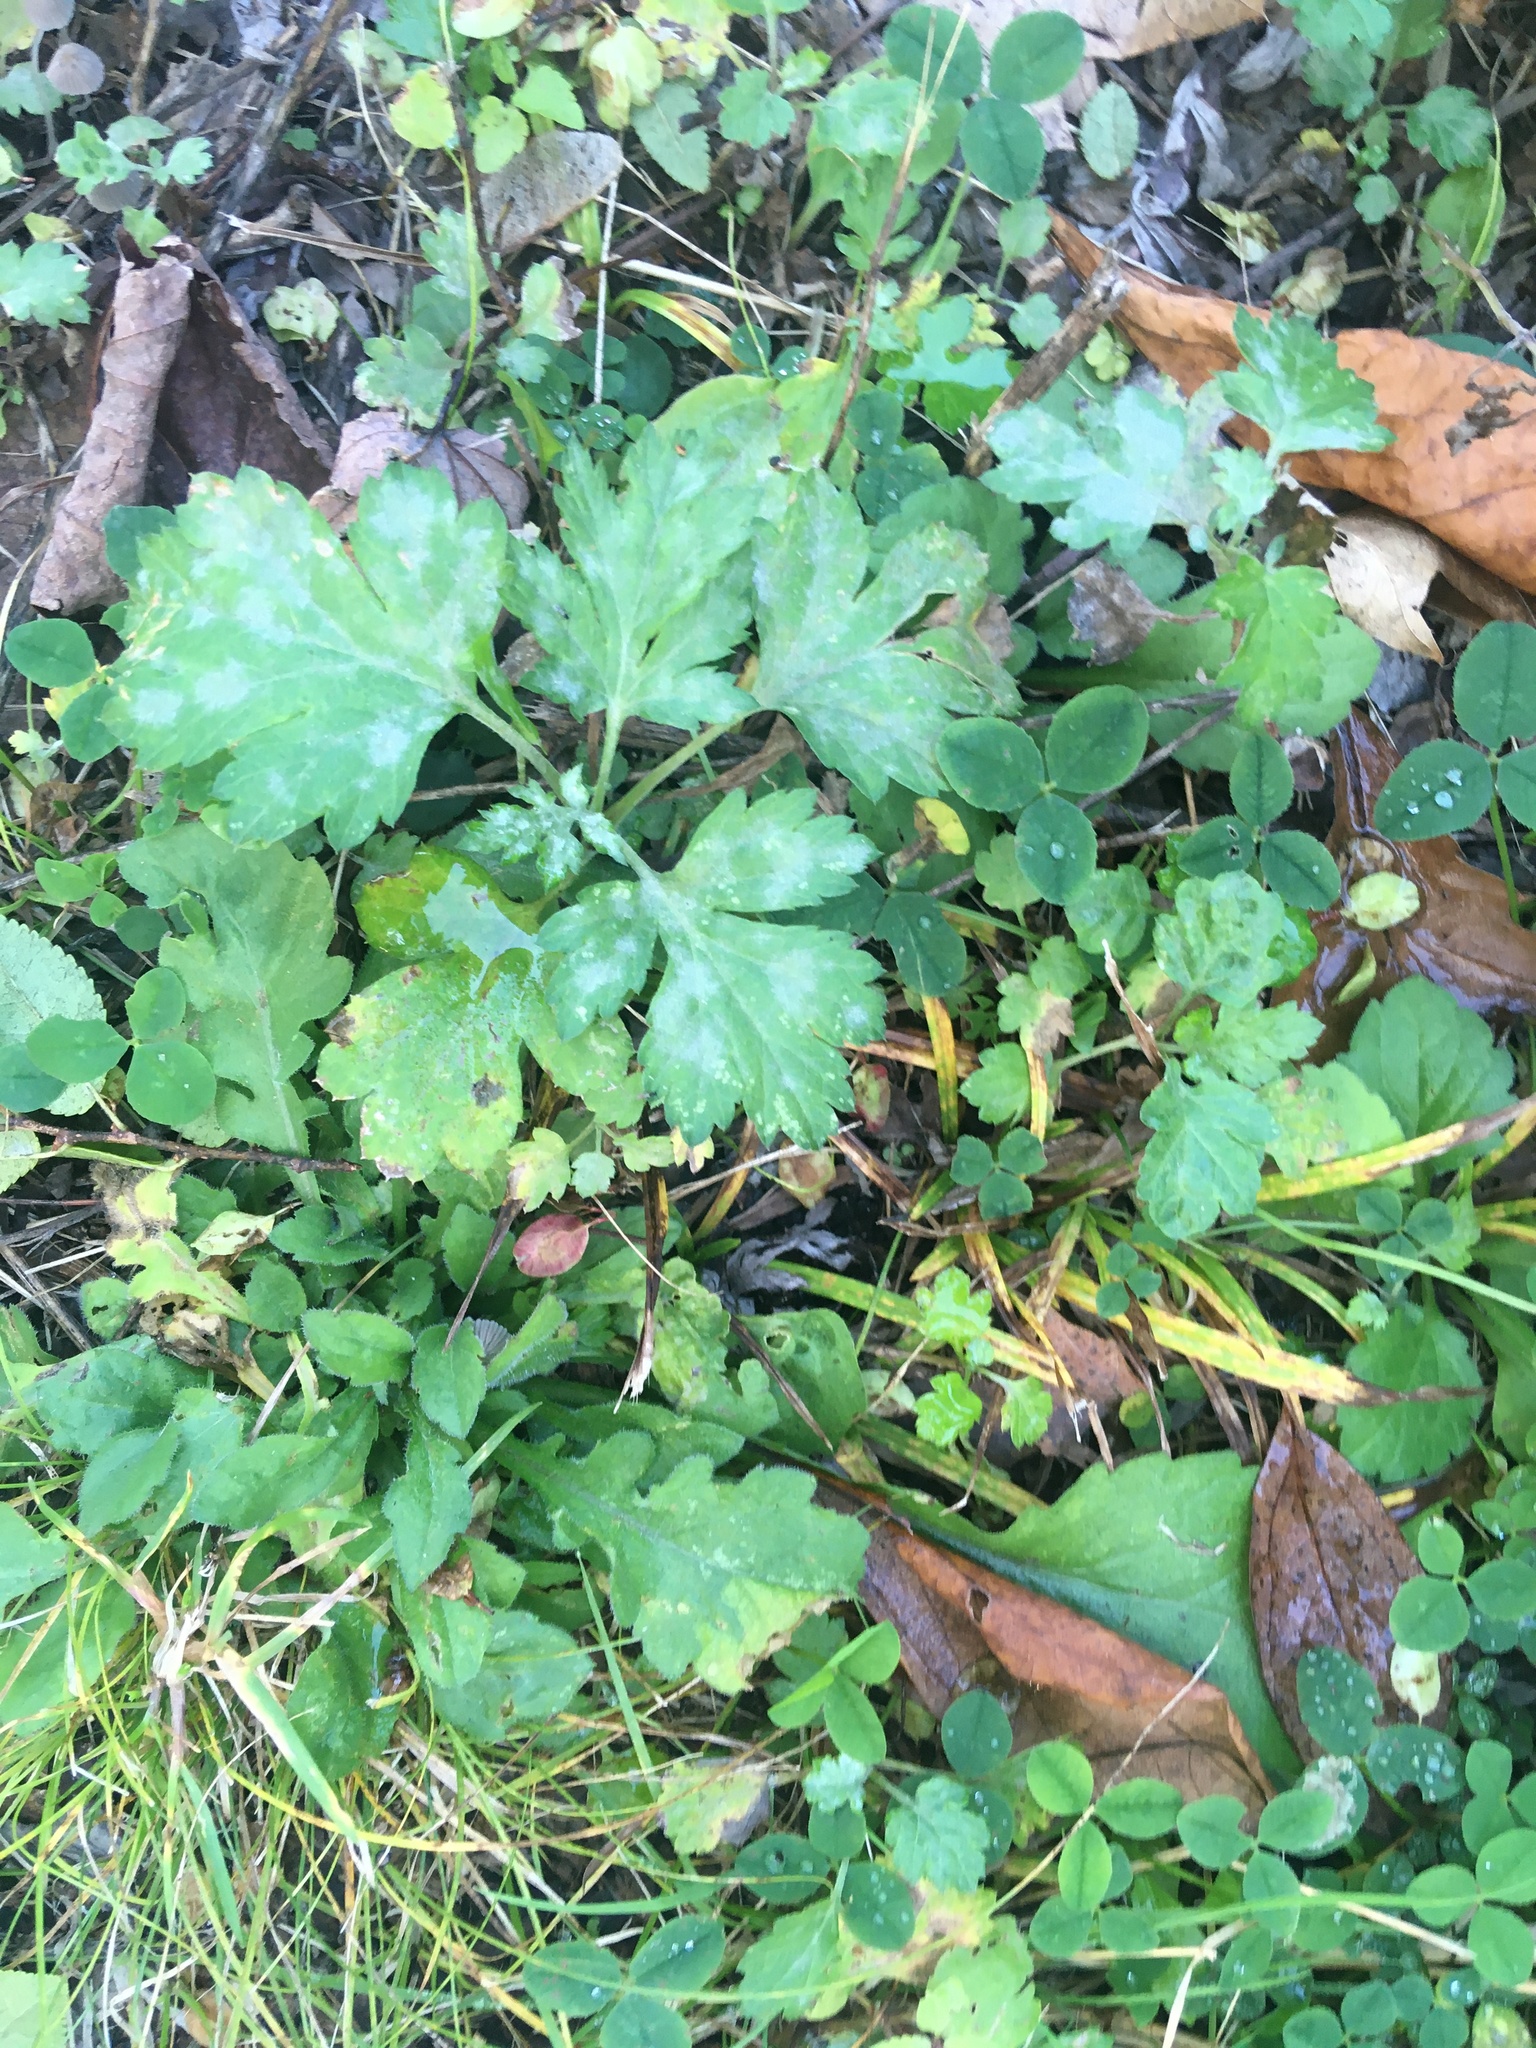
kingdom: Plantae
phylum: Tracheophyta
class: Magnoliopsida
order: Asterales
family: Asteraceae
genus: Artemisia
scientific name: Artemisia vulgaris
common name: Mugwort
